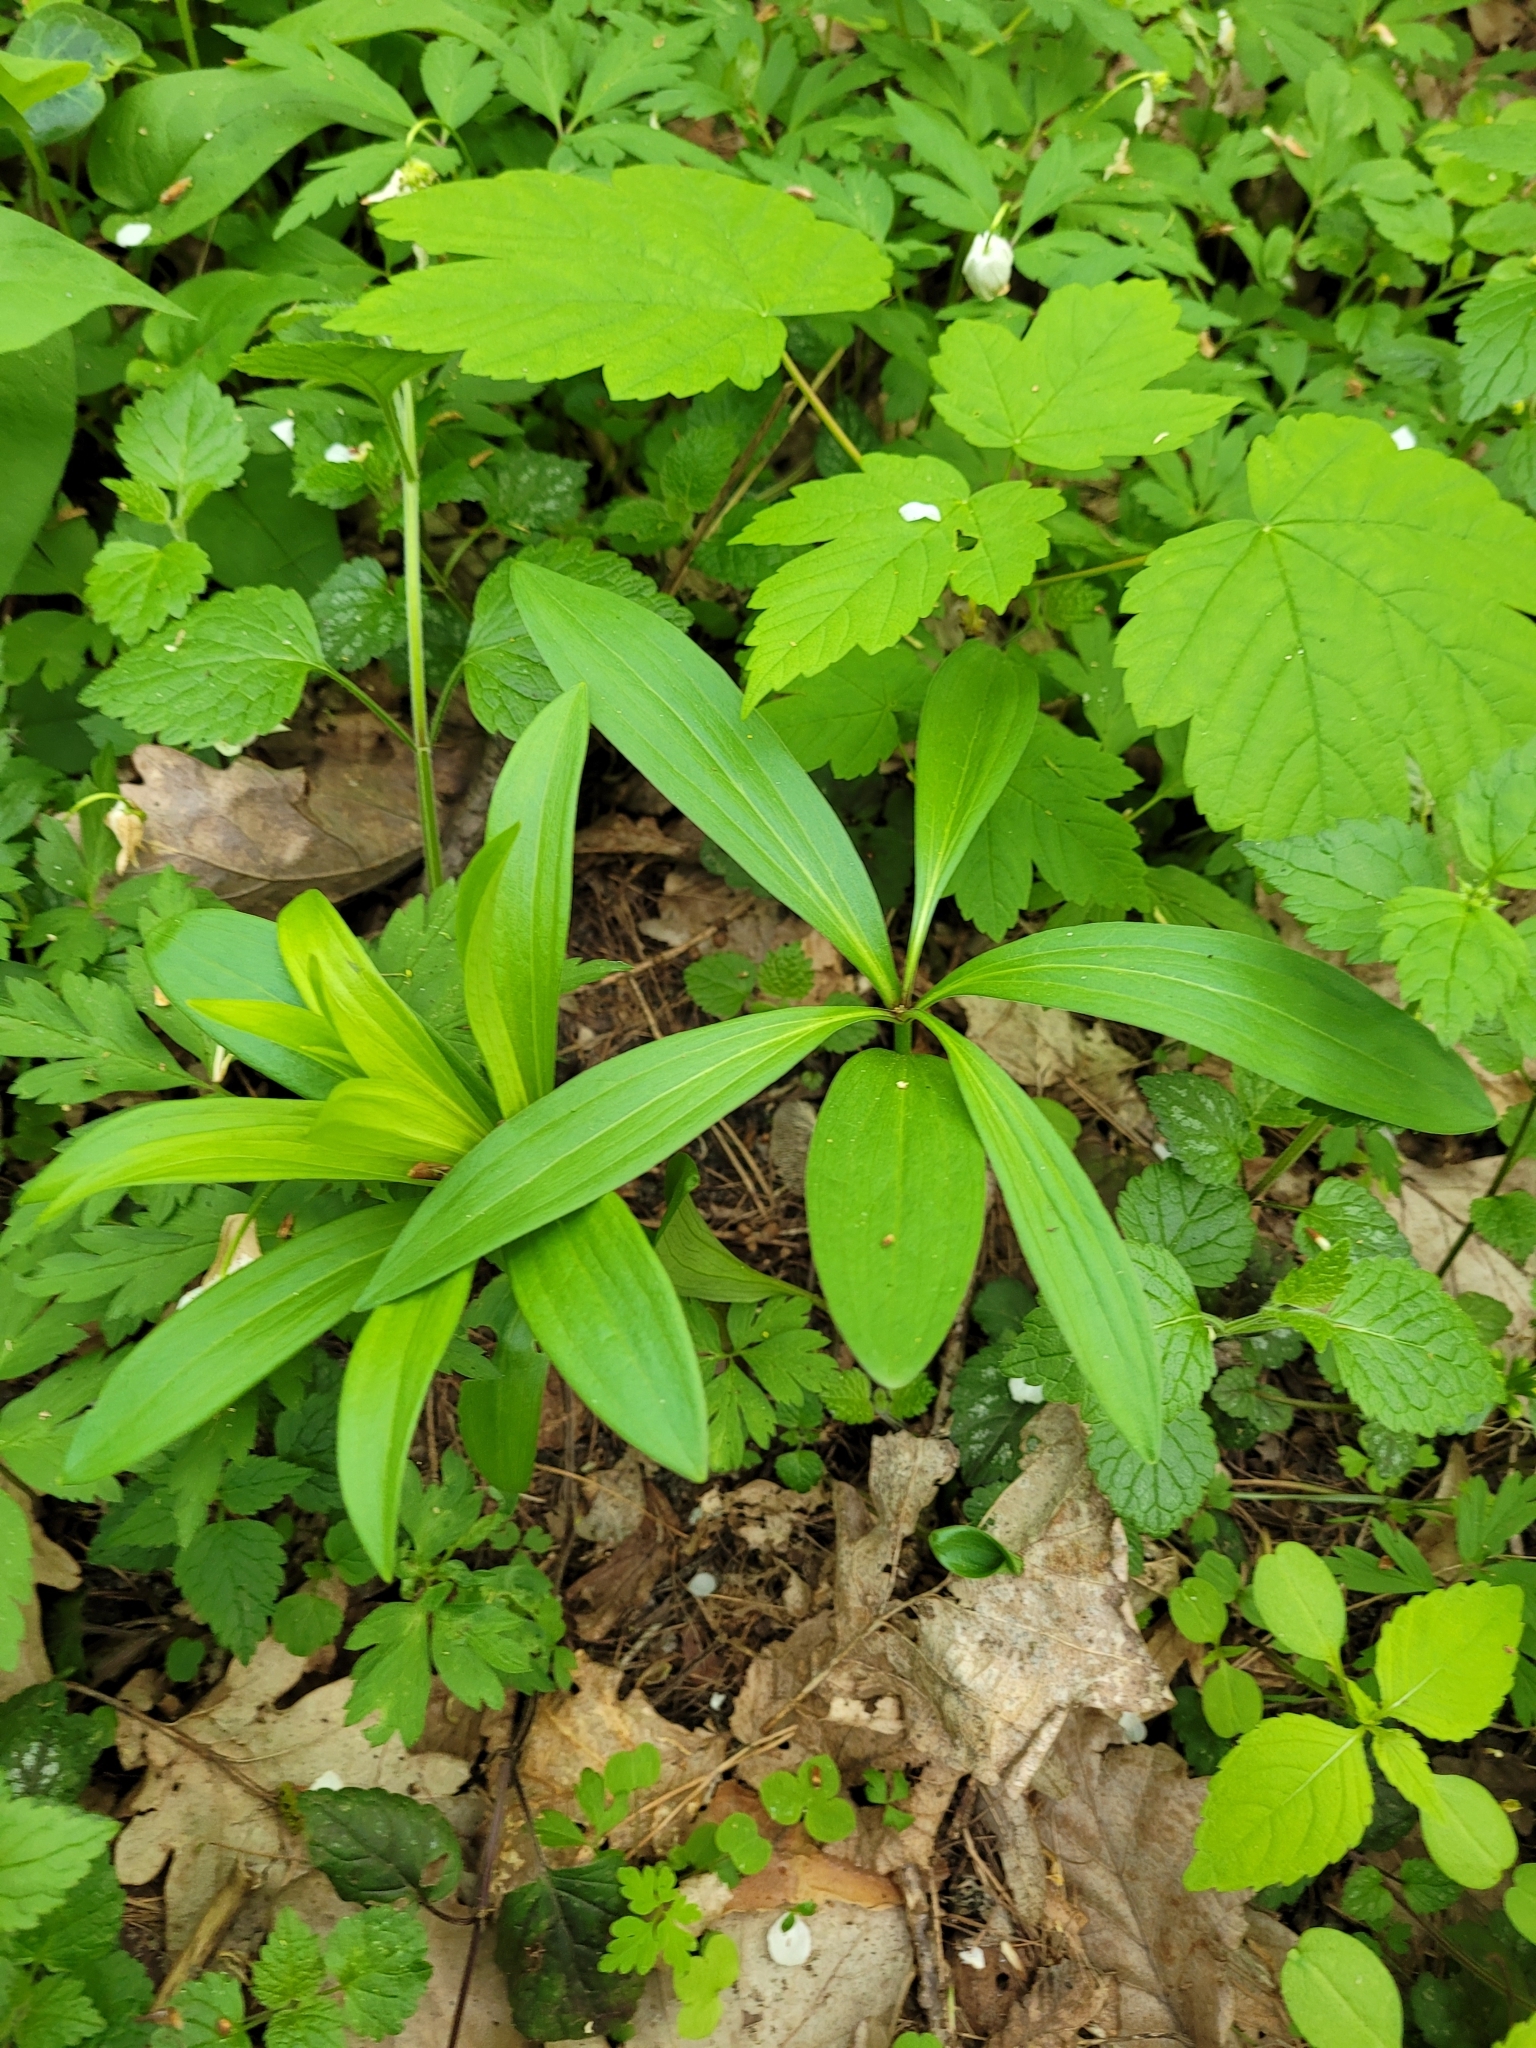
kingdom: Plantae
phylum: Tracheophyta
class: Liliopsida
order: Liliales
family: Liliaceae
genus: Lilium
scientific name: Lilium martagon
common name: Martagon lily
